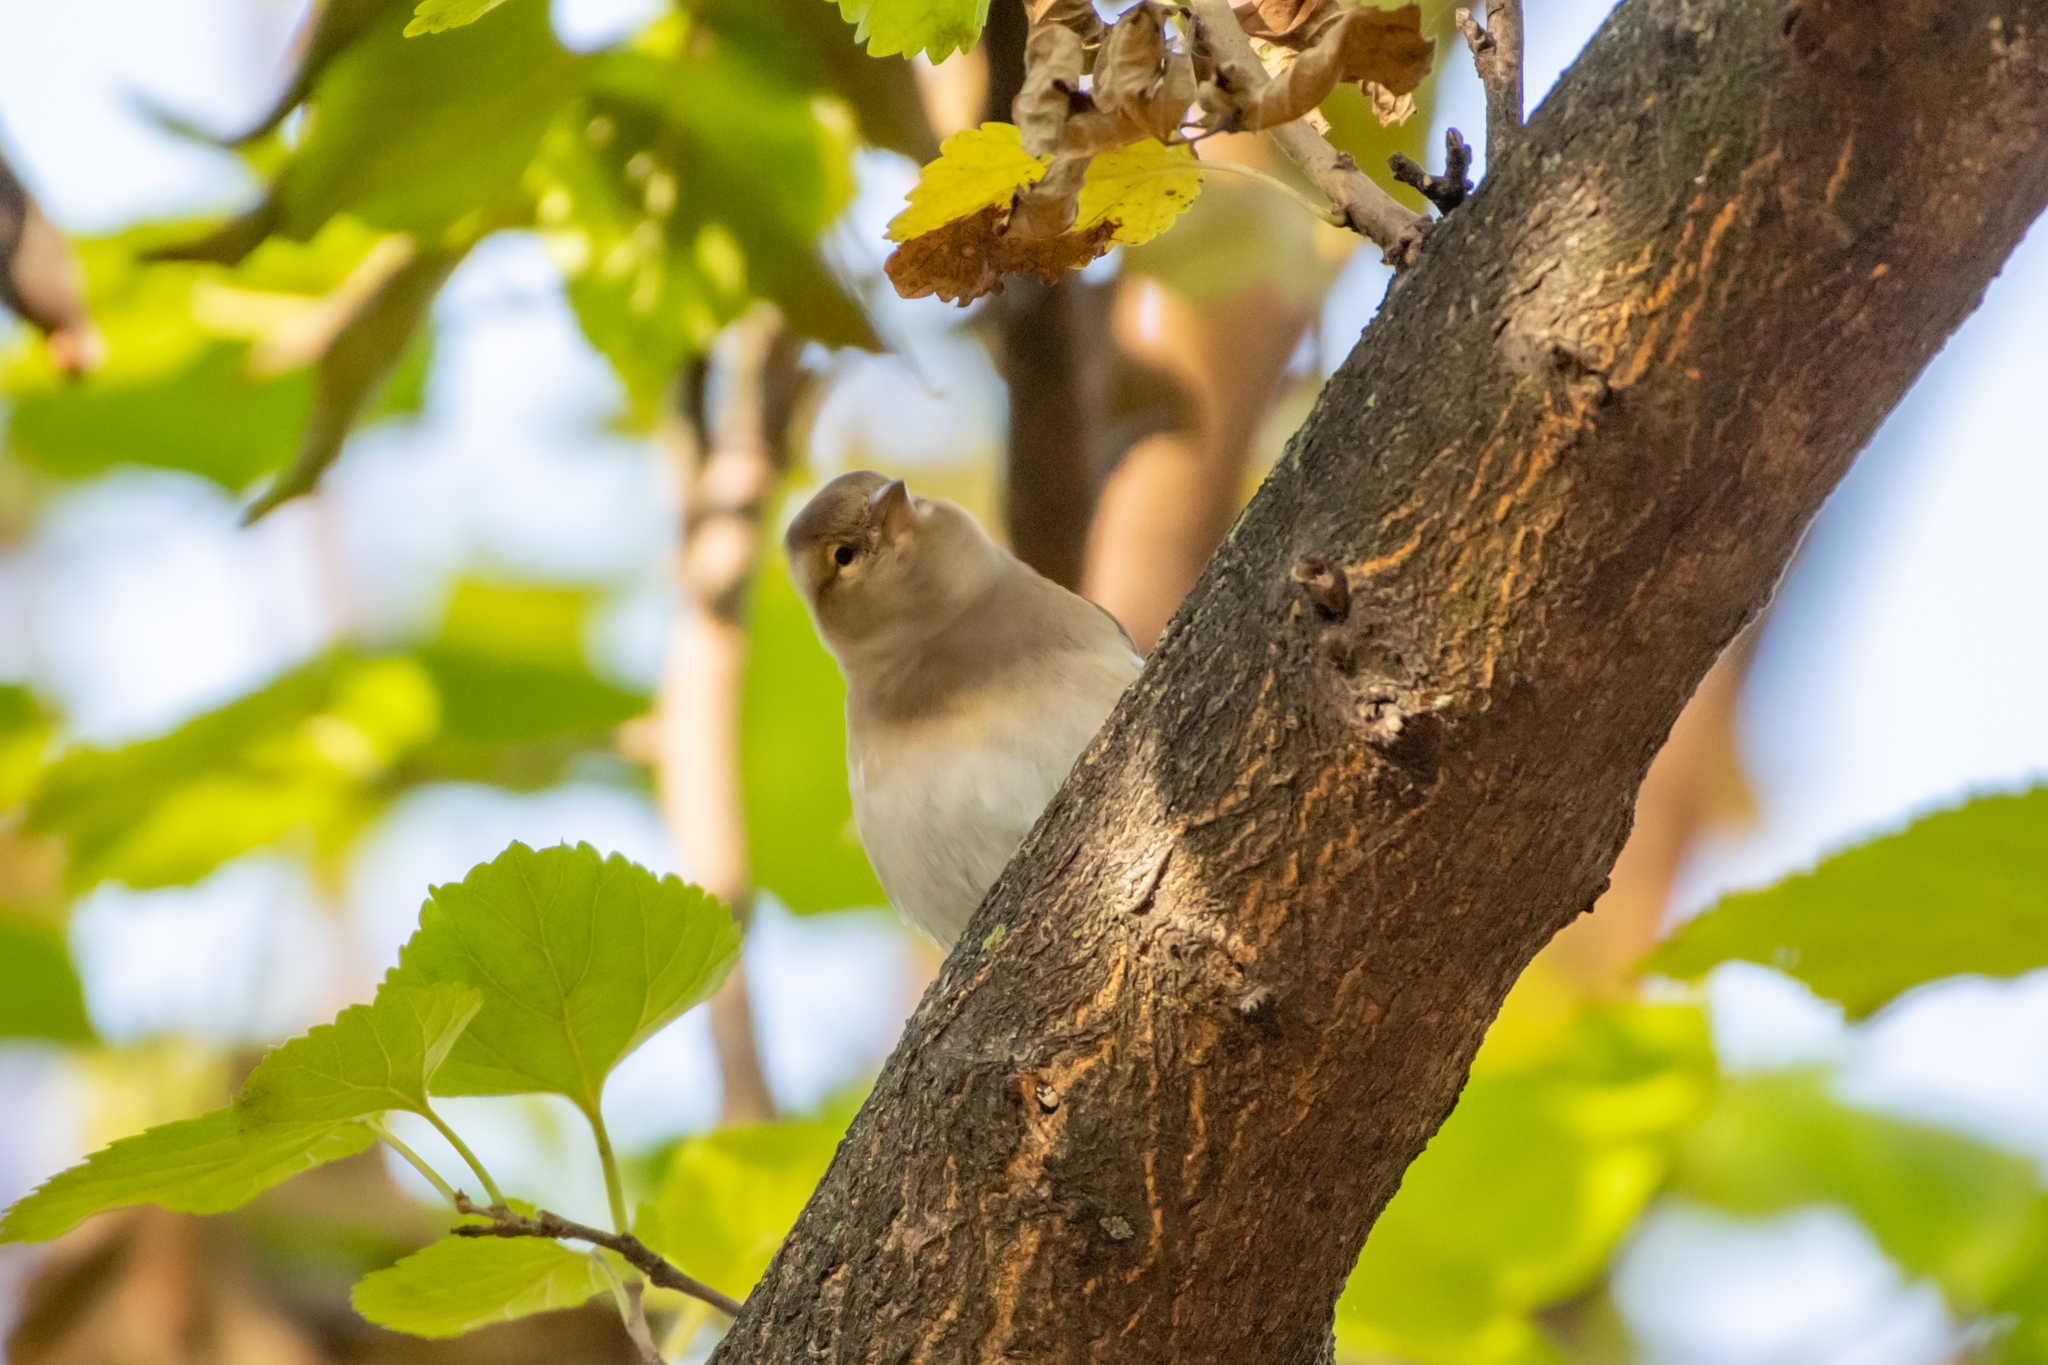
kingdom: Animalia
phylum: Chordata
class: Aves
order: Passeriformes
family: Fringillidae
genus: Fringilla
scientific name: Fringilla coelebs
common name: Common chaffinch
